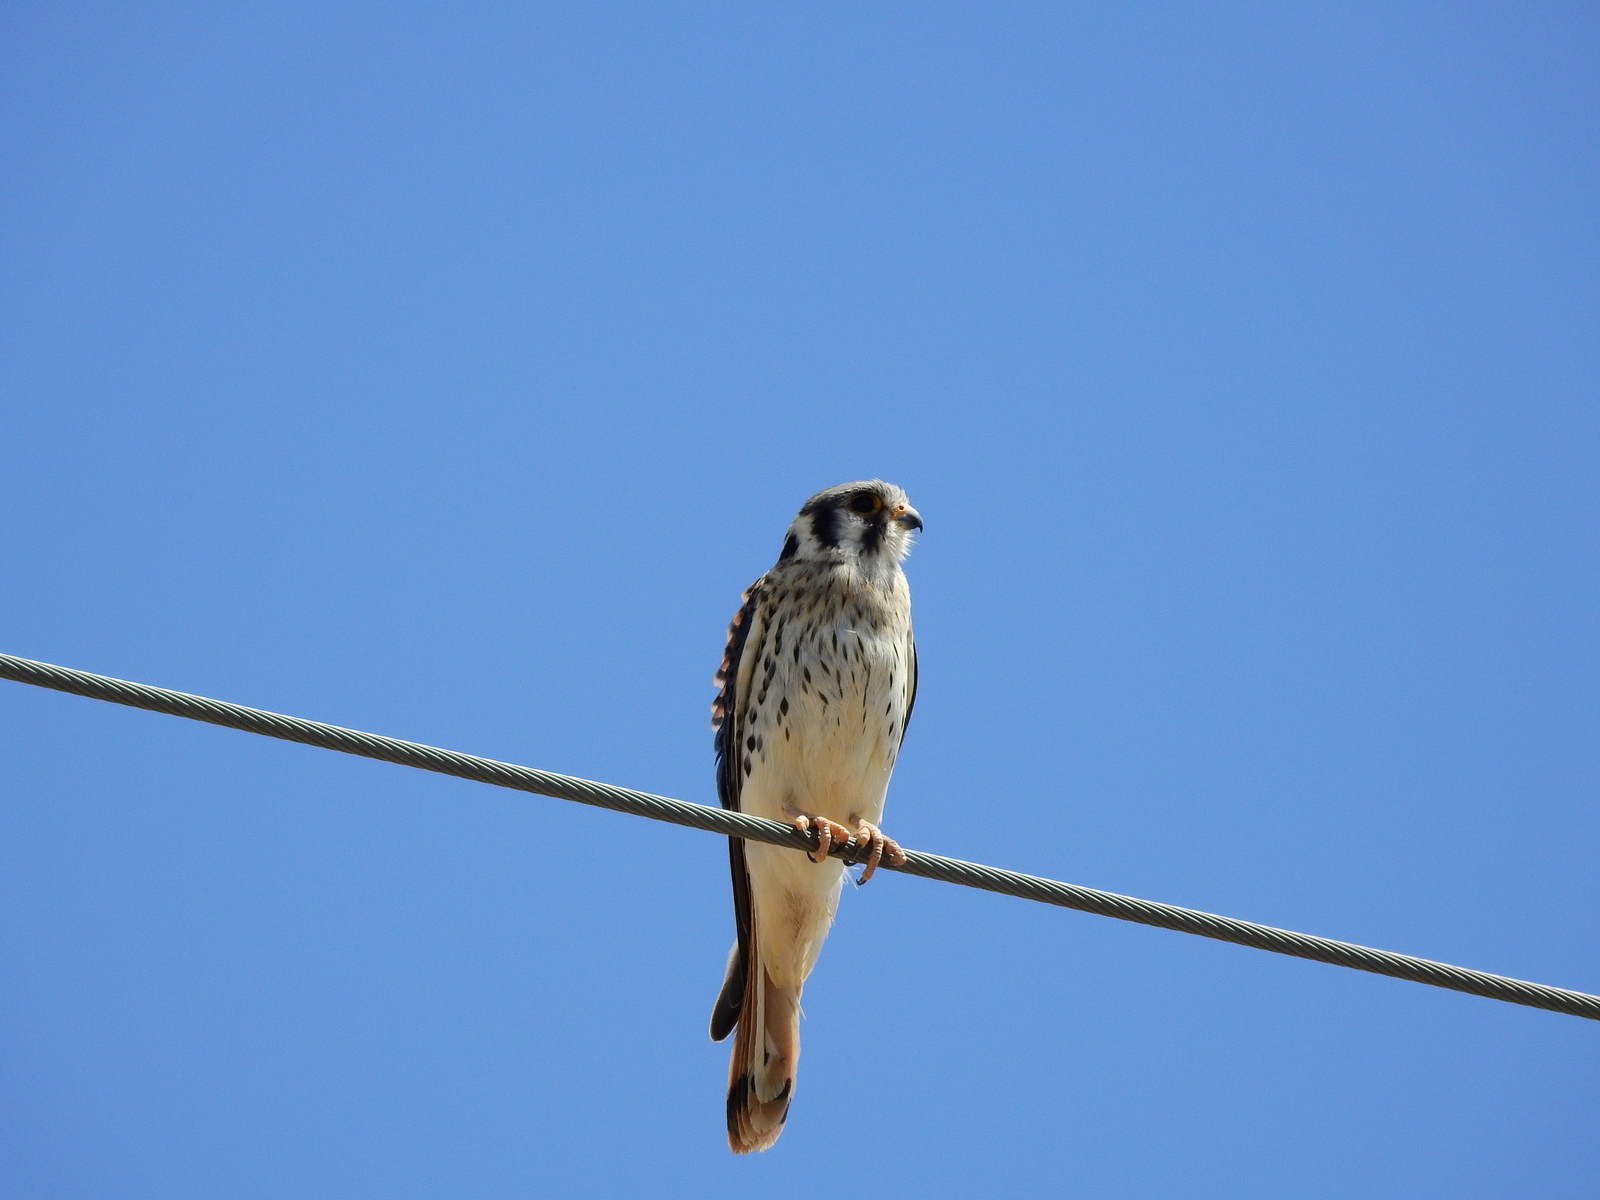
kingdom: Animalia
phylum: Chordata
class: Aves
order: Falconiformes
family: Falconidae
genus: Falco
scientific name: Falco sparverius
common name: American kestrel
